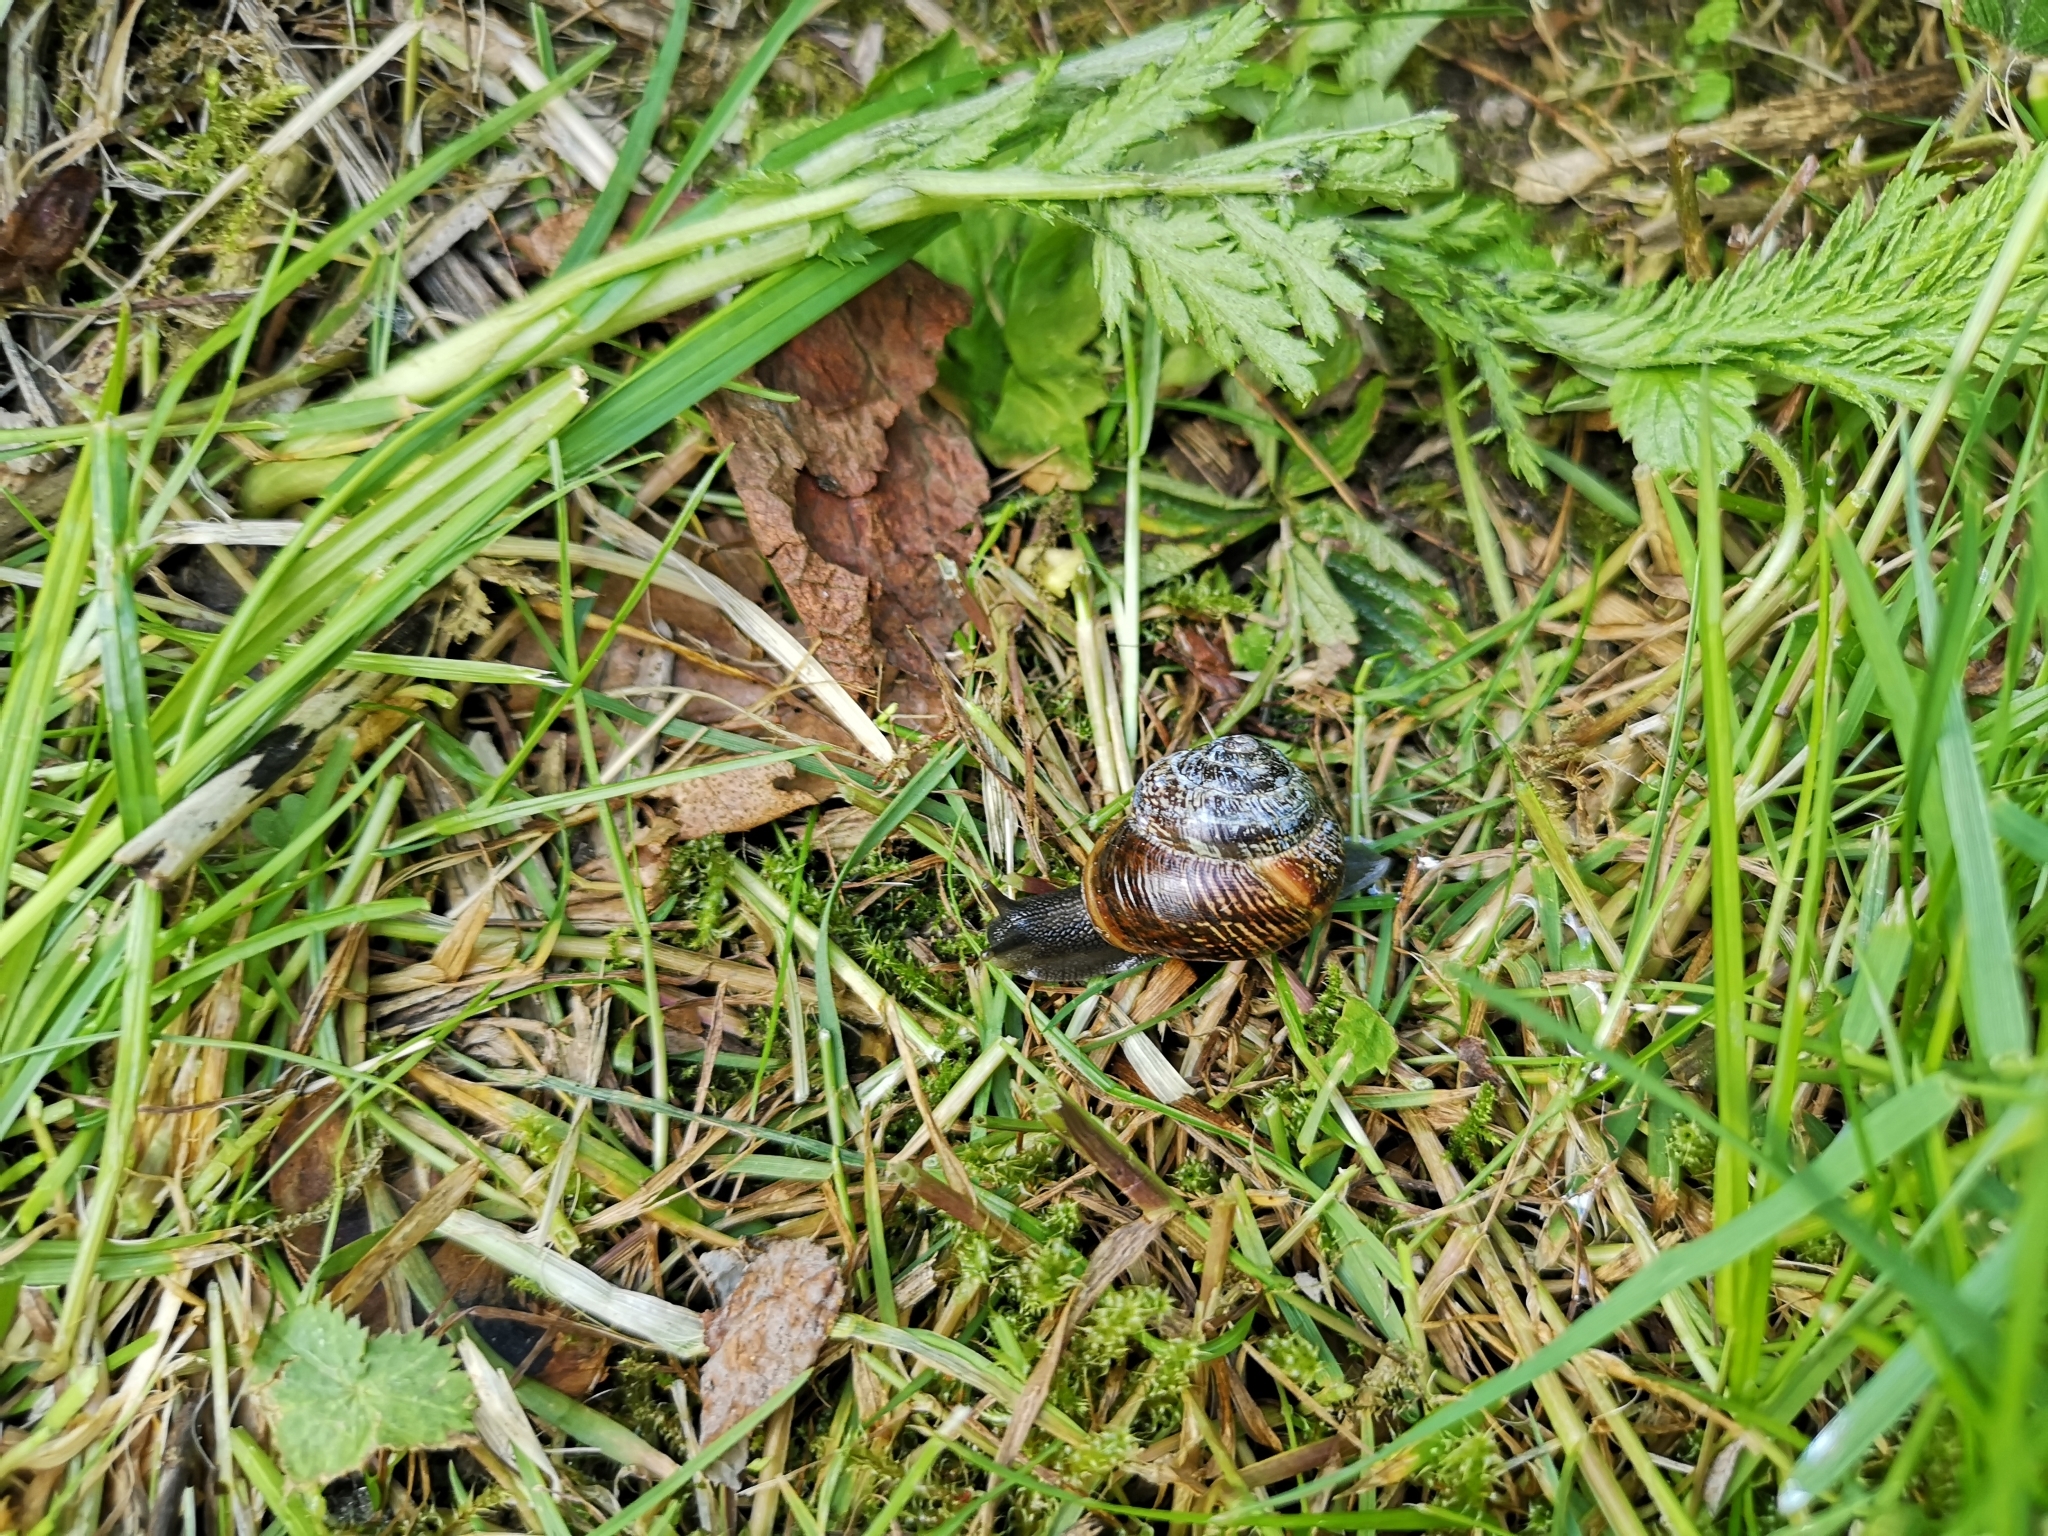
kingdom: Animalia
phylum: Mollusca
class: Gastropoda
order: Stylommatophora
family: Helicidae
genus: Arianta
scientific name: Arianta arbustorum
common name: Copse snail
